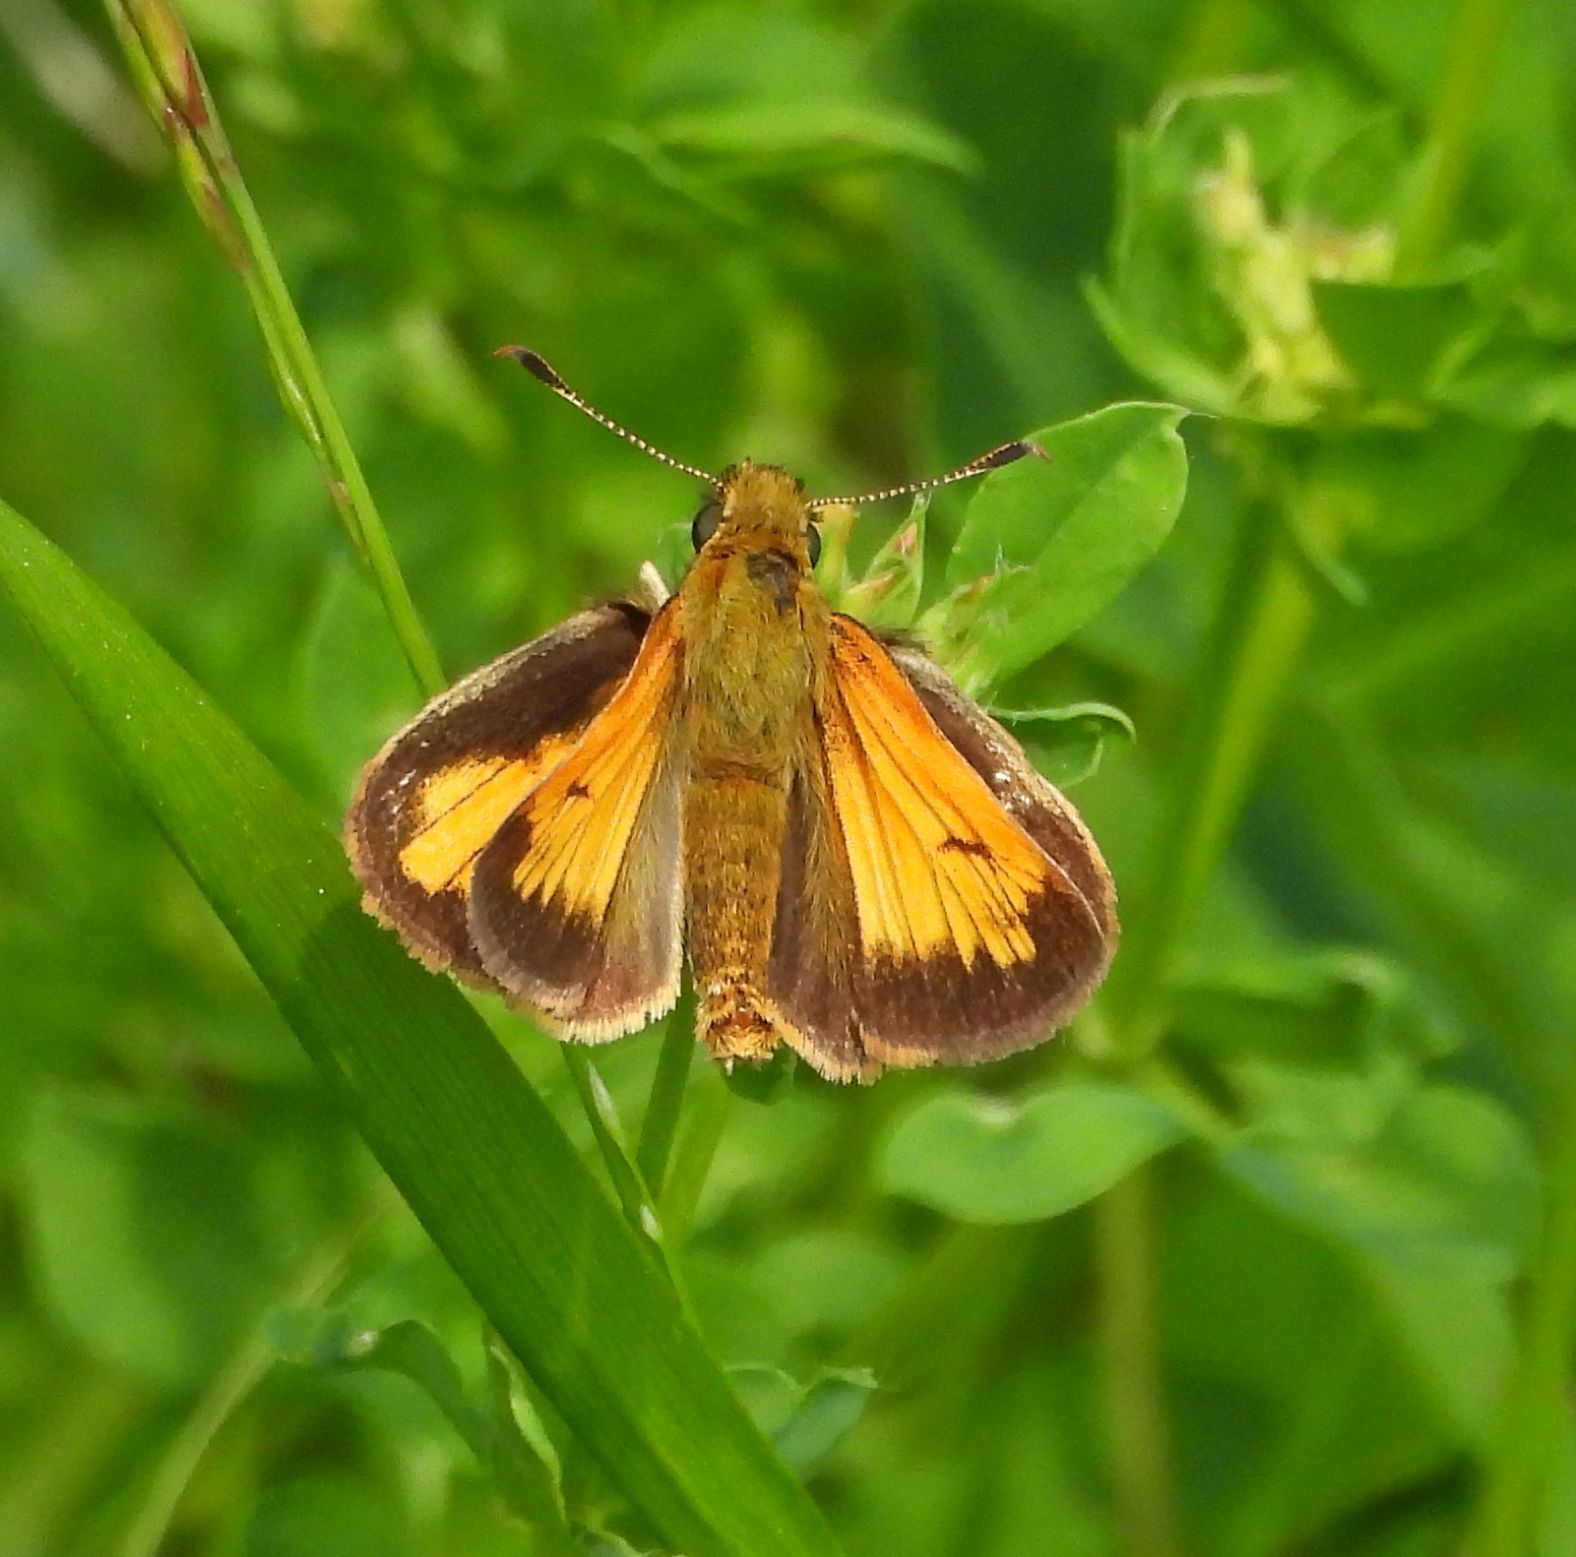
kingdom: Animalia
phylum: Arthropoda
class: Insecta
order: Lepidoptera
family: Hesperiidae
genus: Lon
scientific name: Lon hobomok
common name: Hobomok skipper
